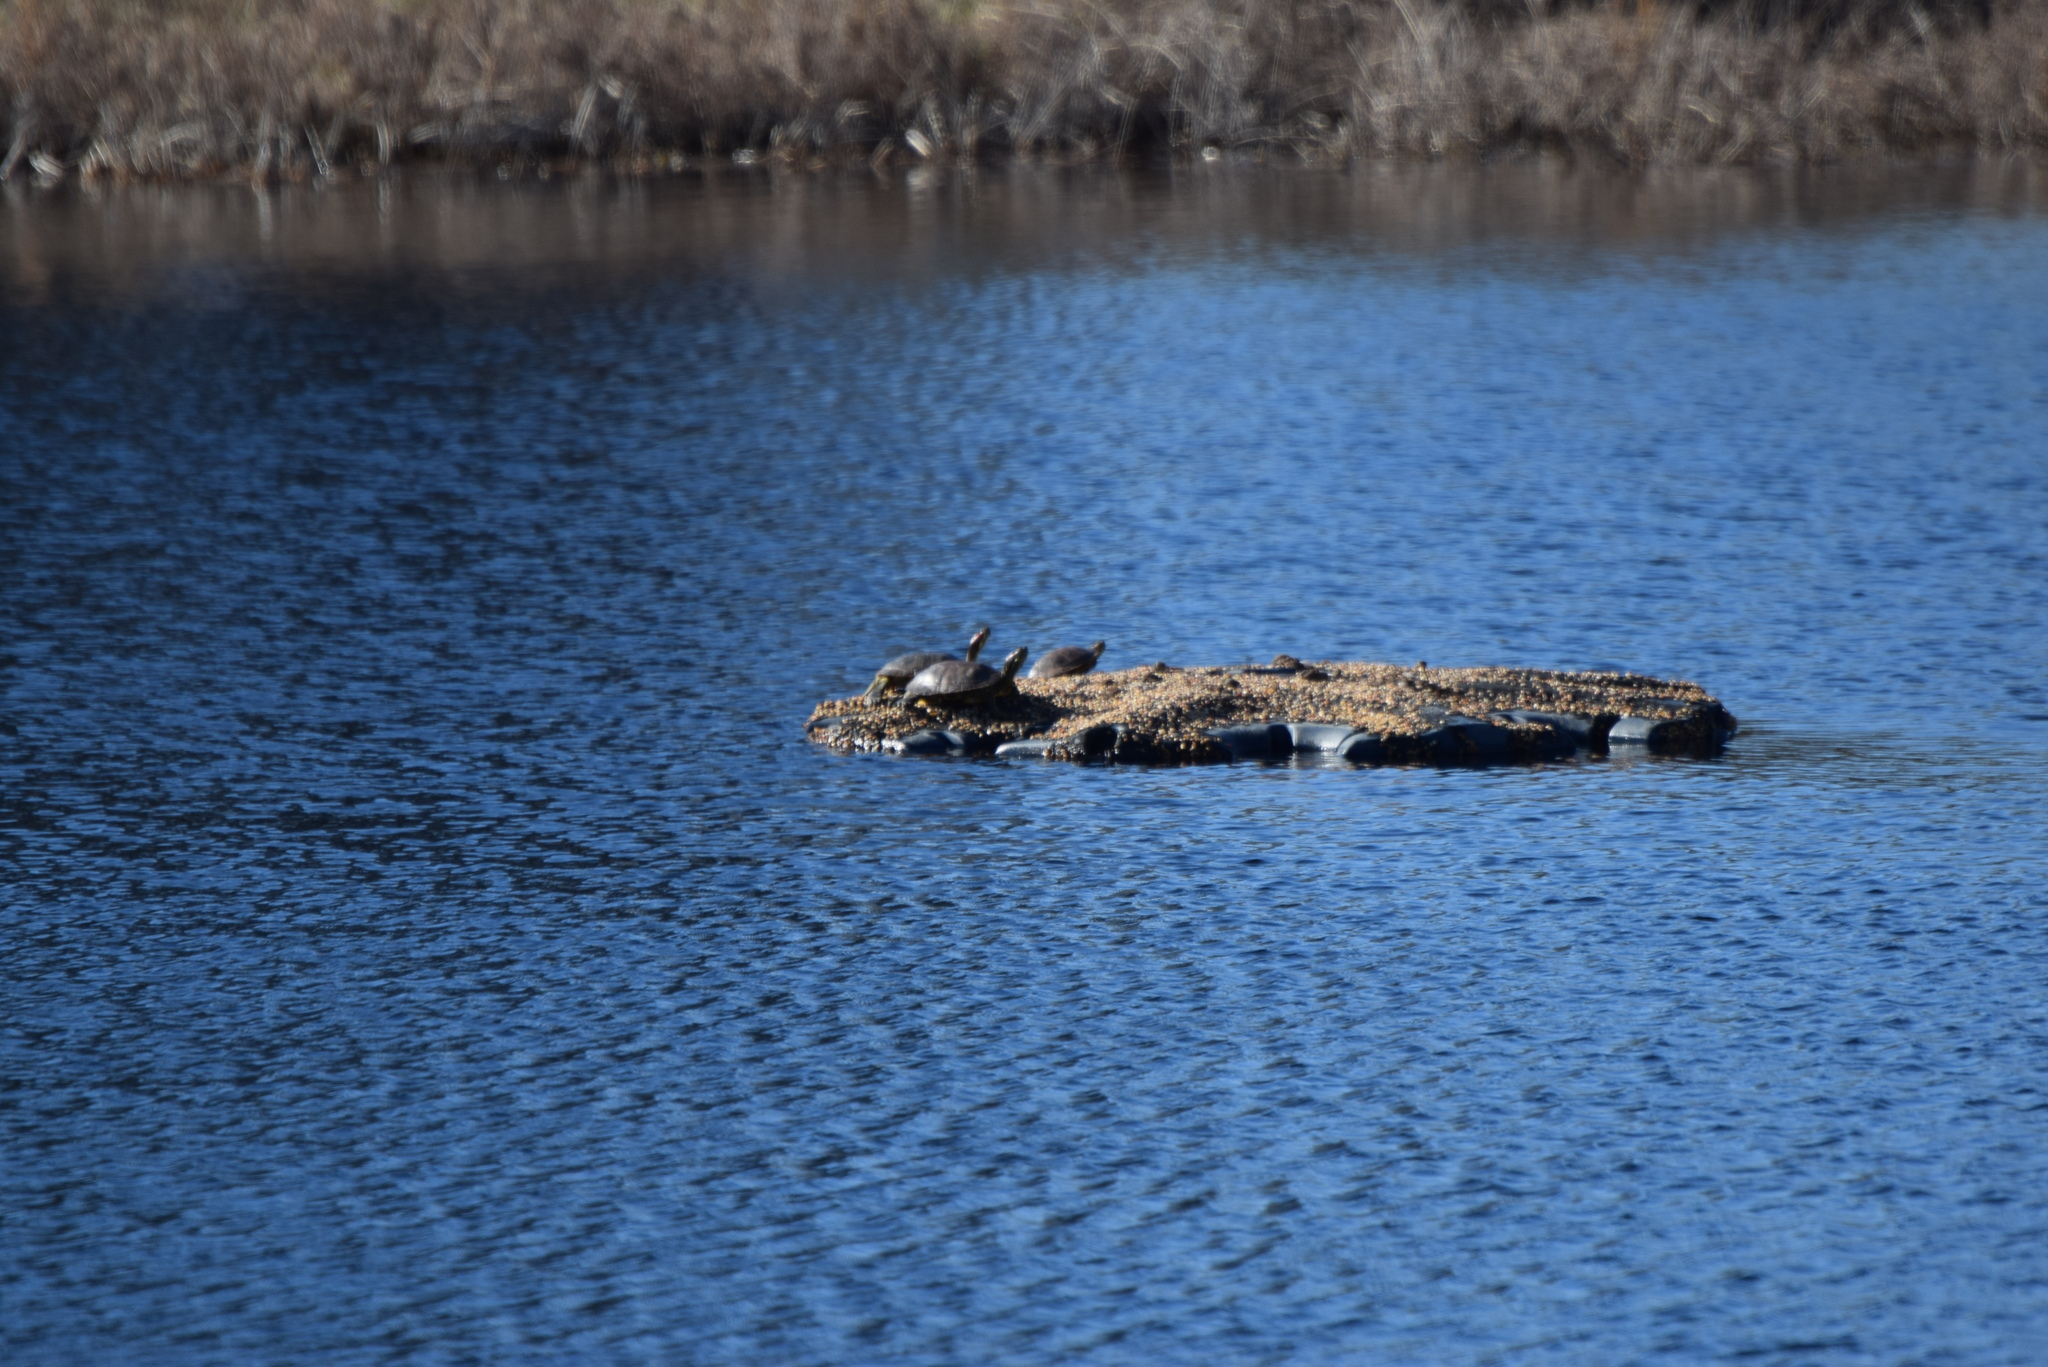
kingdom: Animalia
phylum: Chordata
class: Testudines
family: Emydidae
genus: Trachemys
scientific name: Trachemys scripta
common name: Slider
